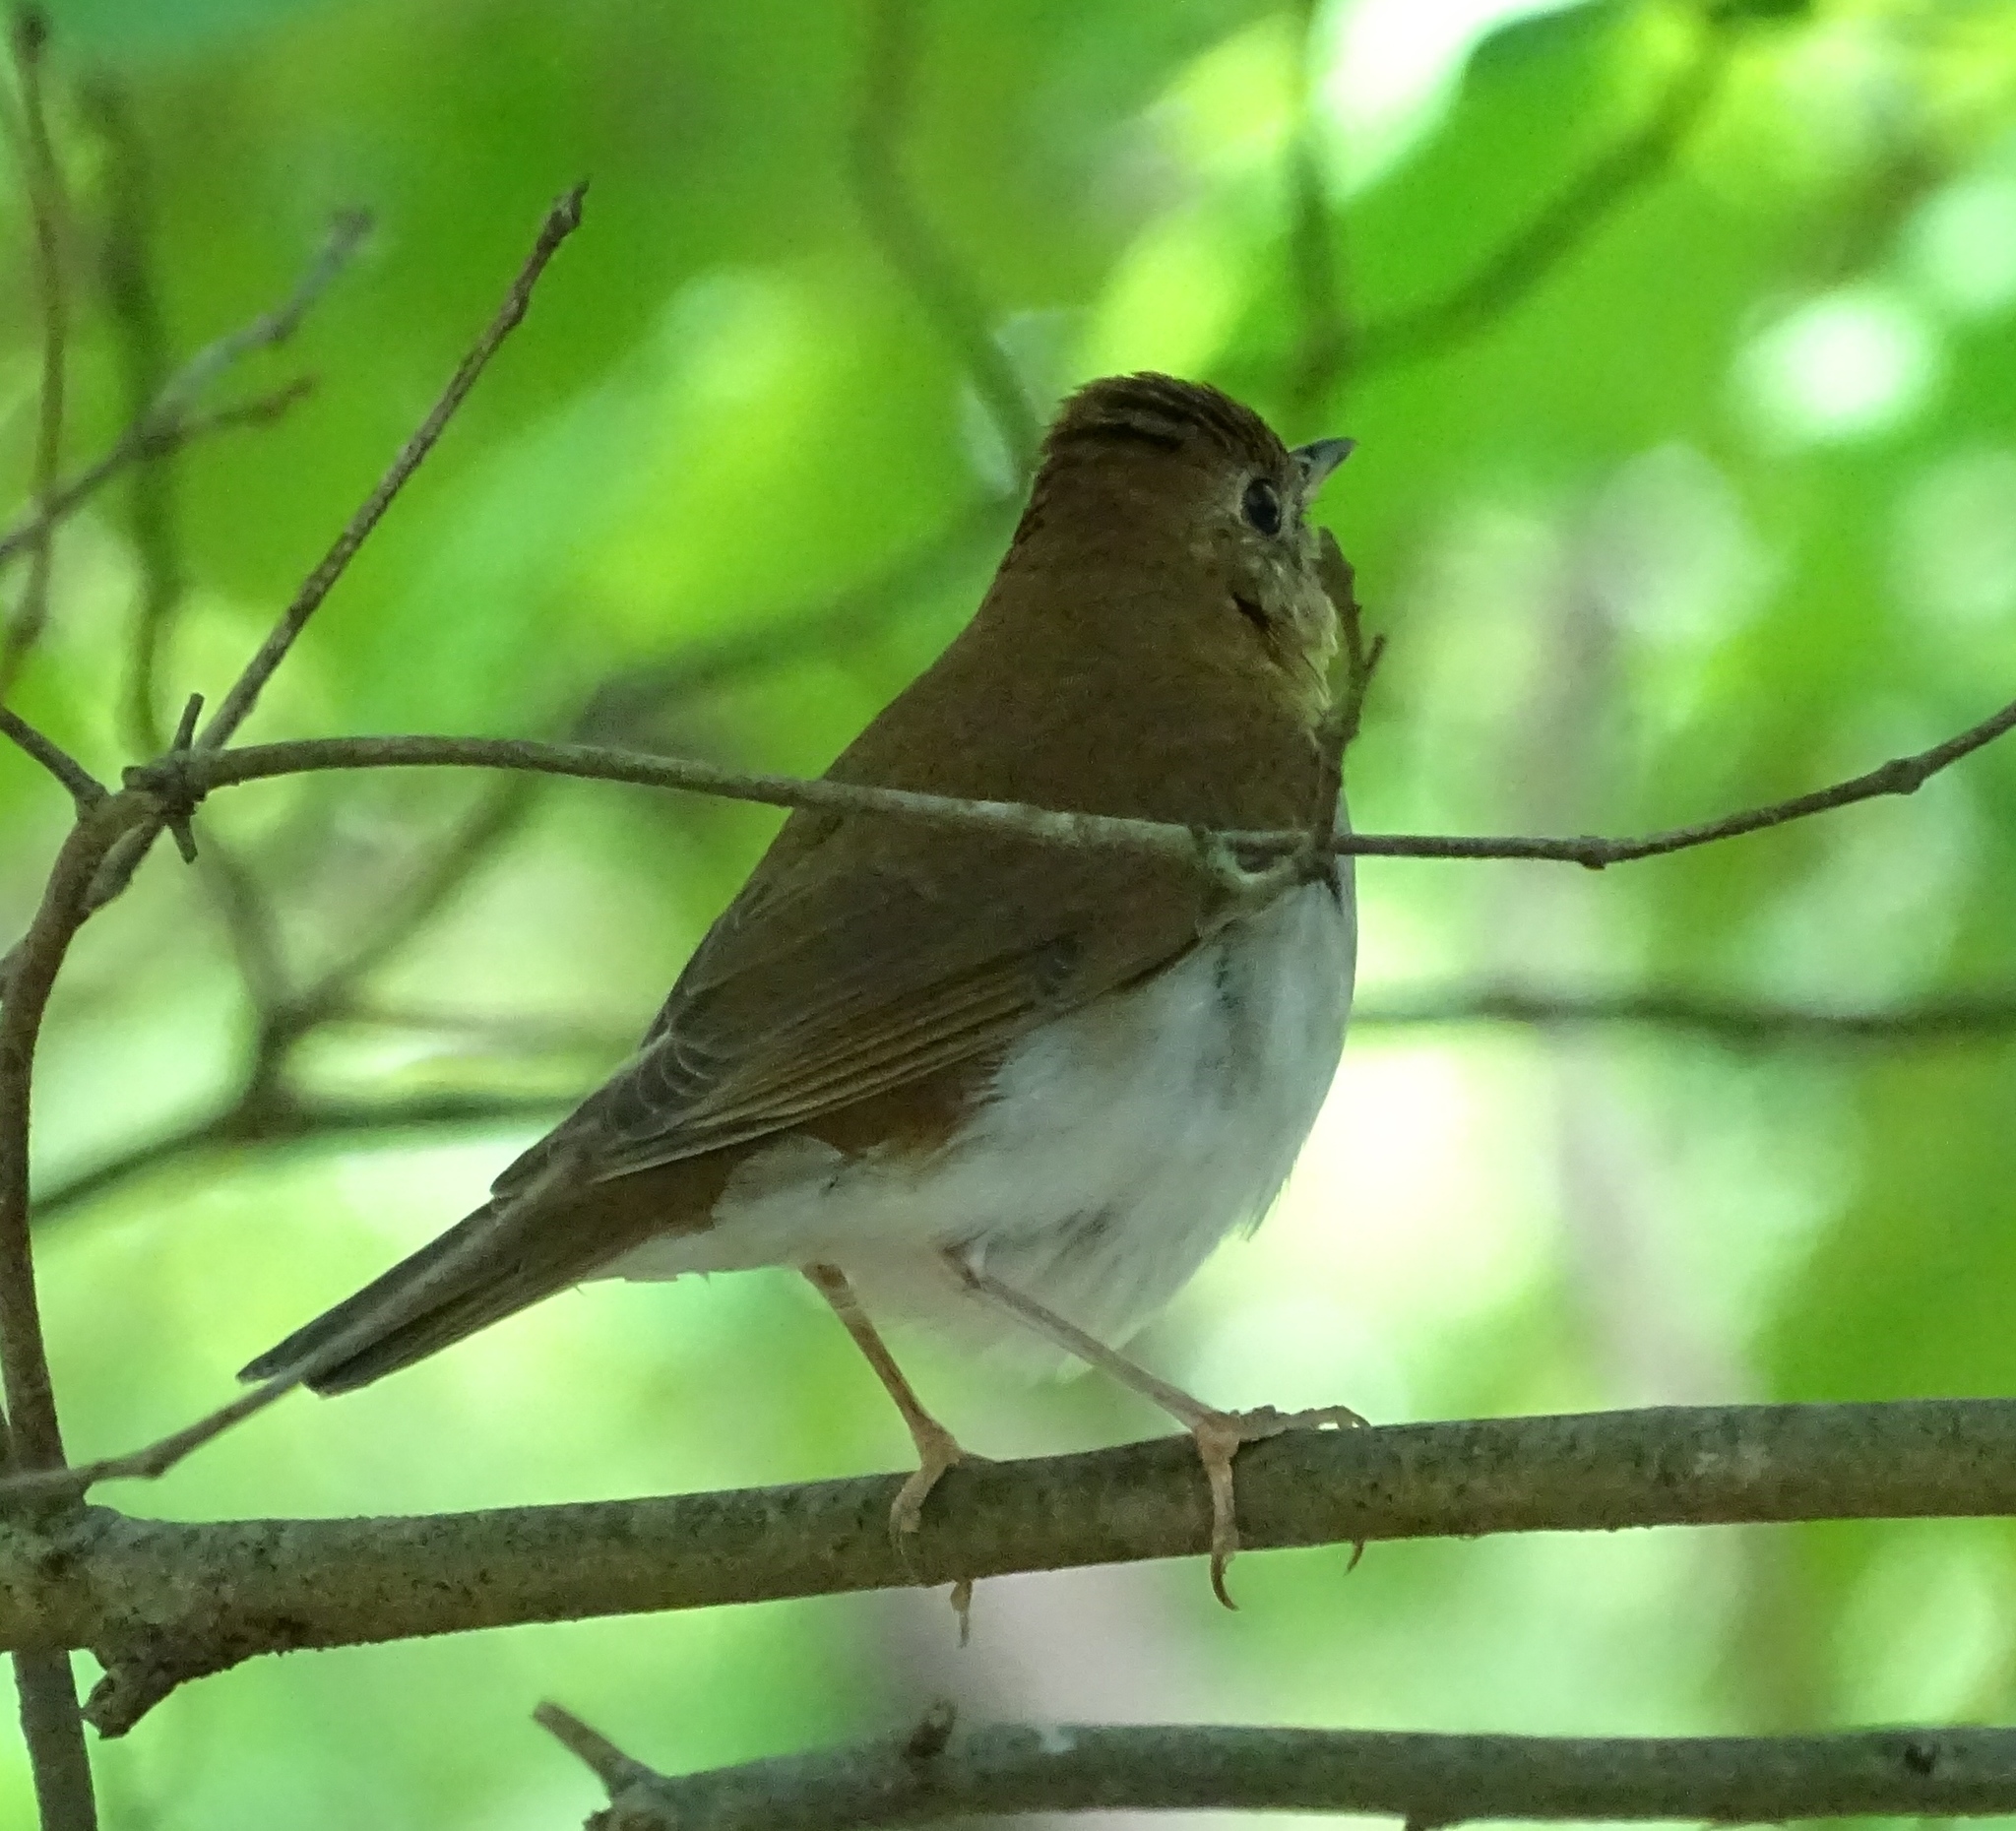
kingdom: Animalia
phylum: Chordata
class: Aves
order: Passeriformes
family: Turdidae
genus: Catharus
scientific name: Catharus fuscescens
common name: Veery
